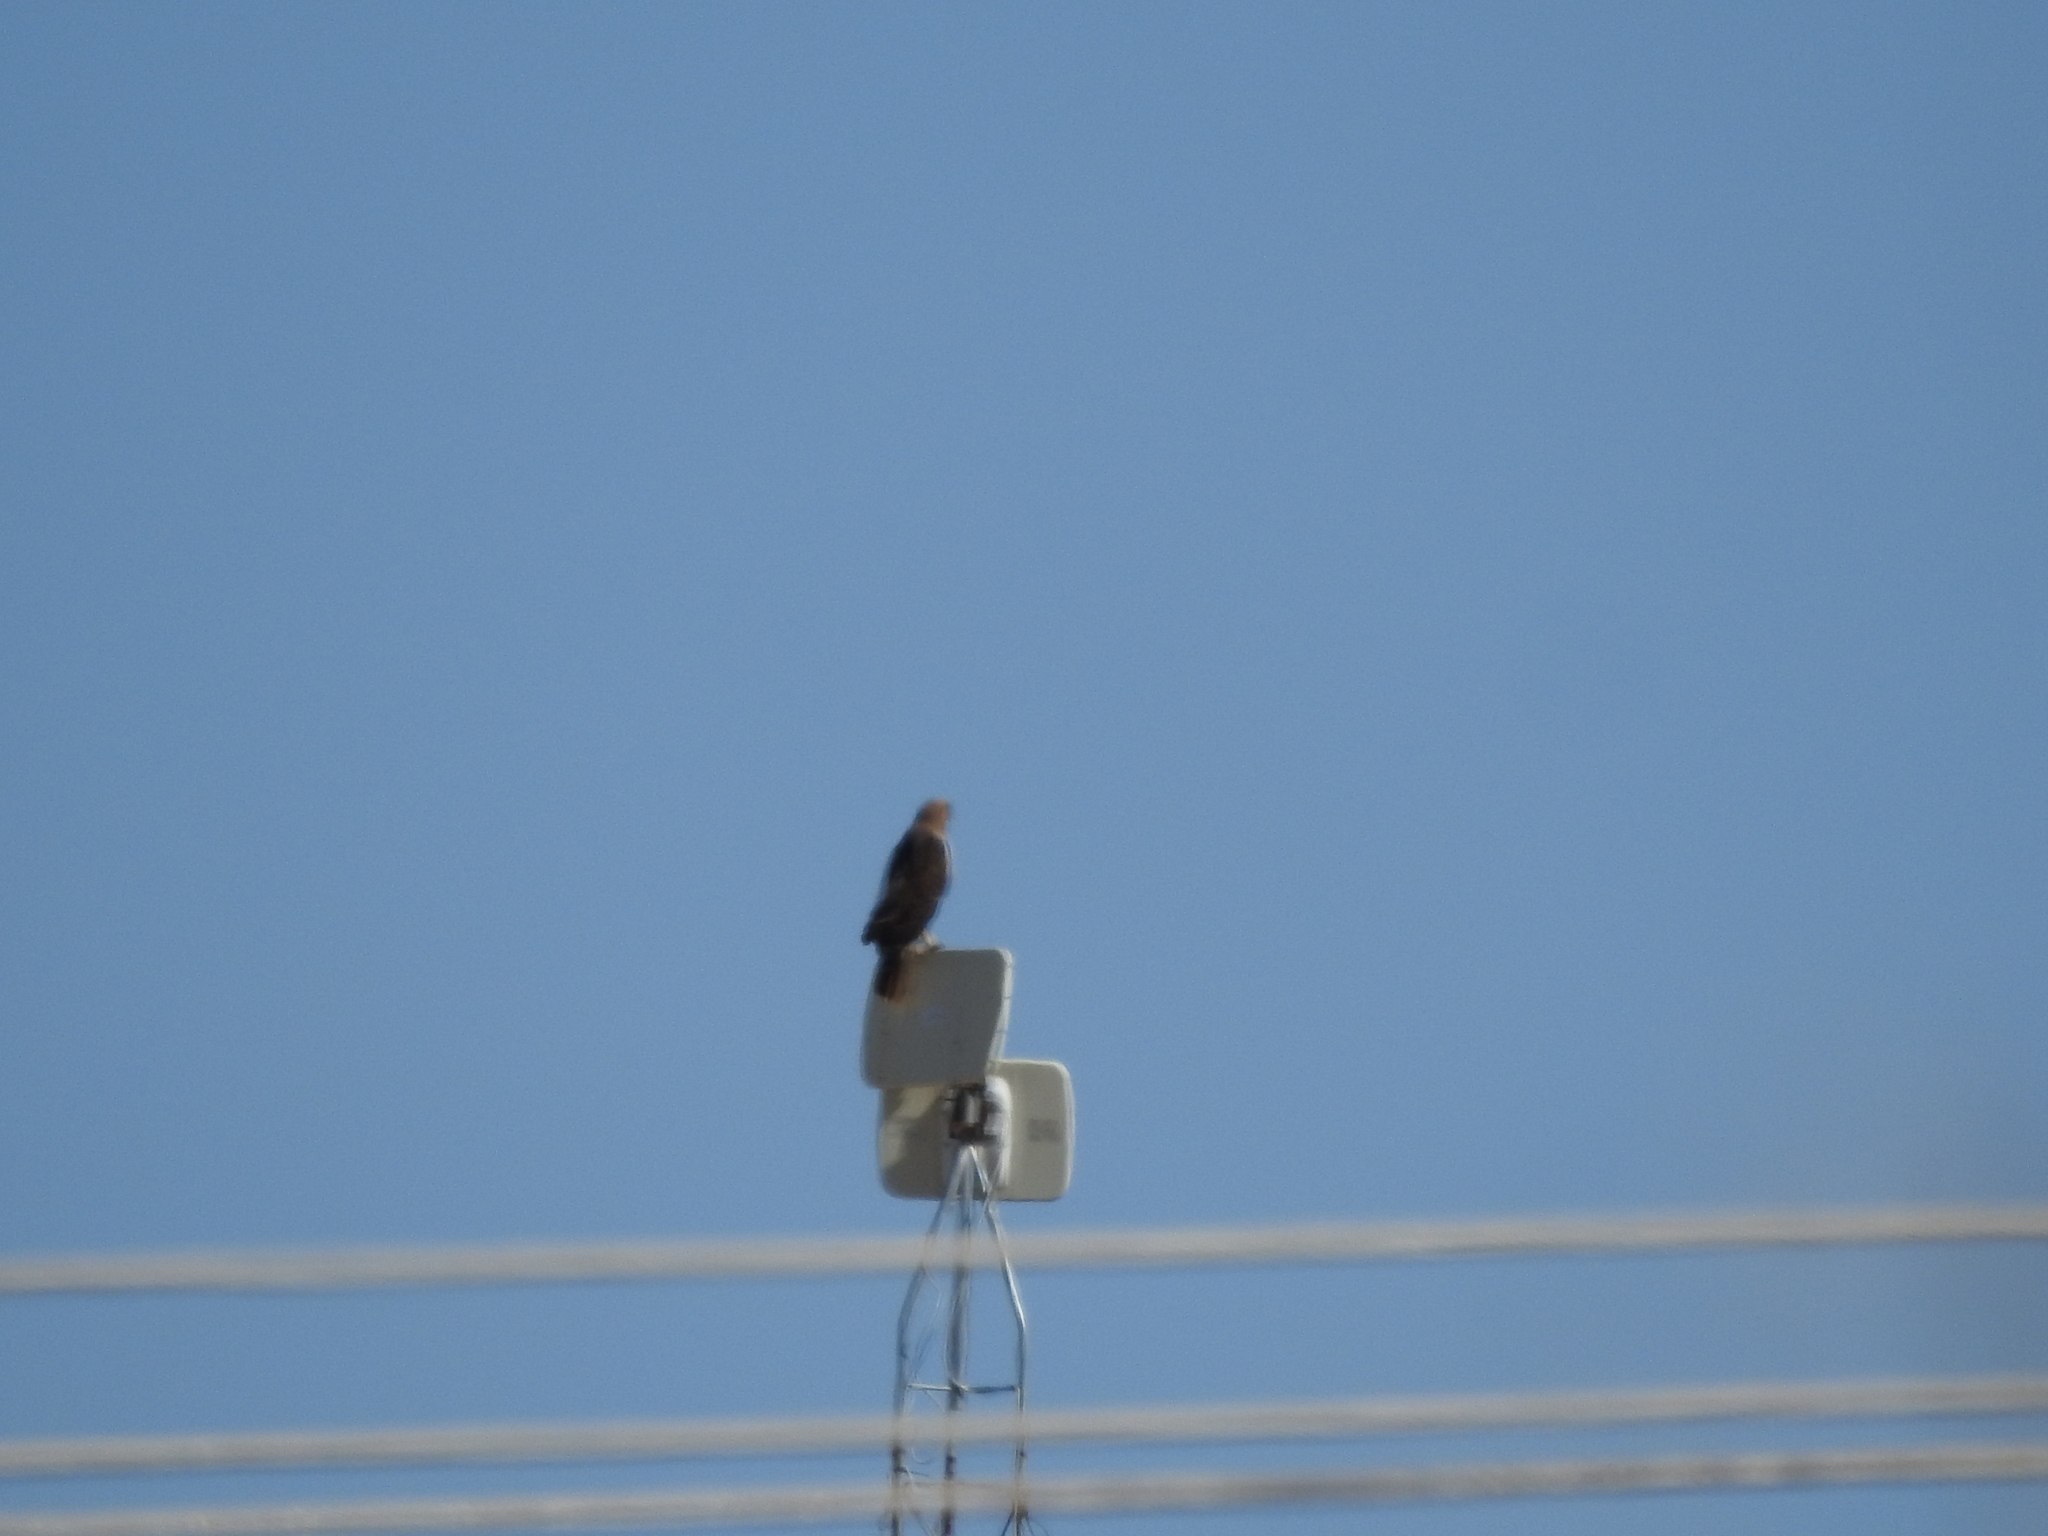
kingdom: Animalia
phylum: Chordata
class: Aves
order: Accipitriformes
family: Accipitridae
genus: Buteo
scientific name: Buteo jamaicensis
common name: Red-tailed hawk
